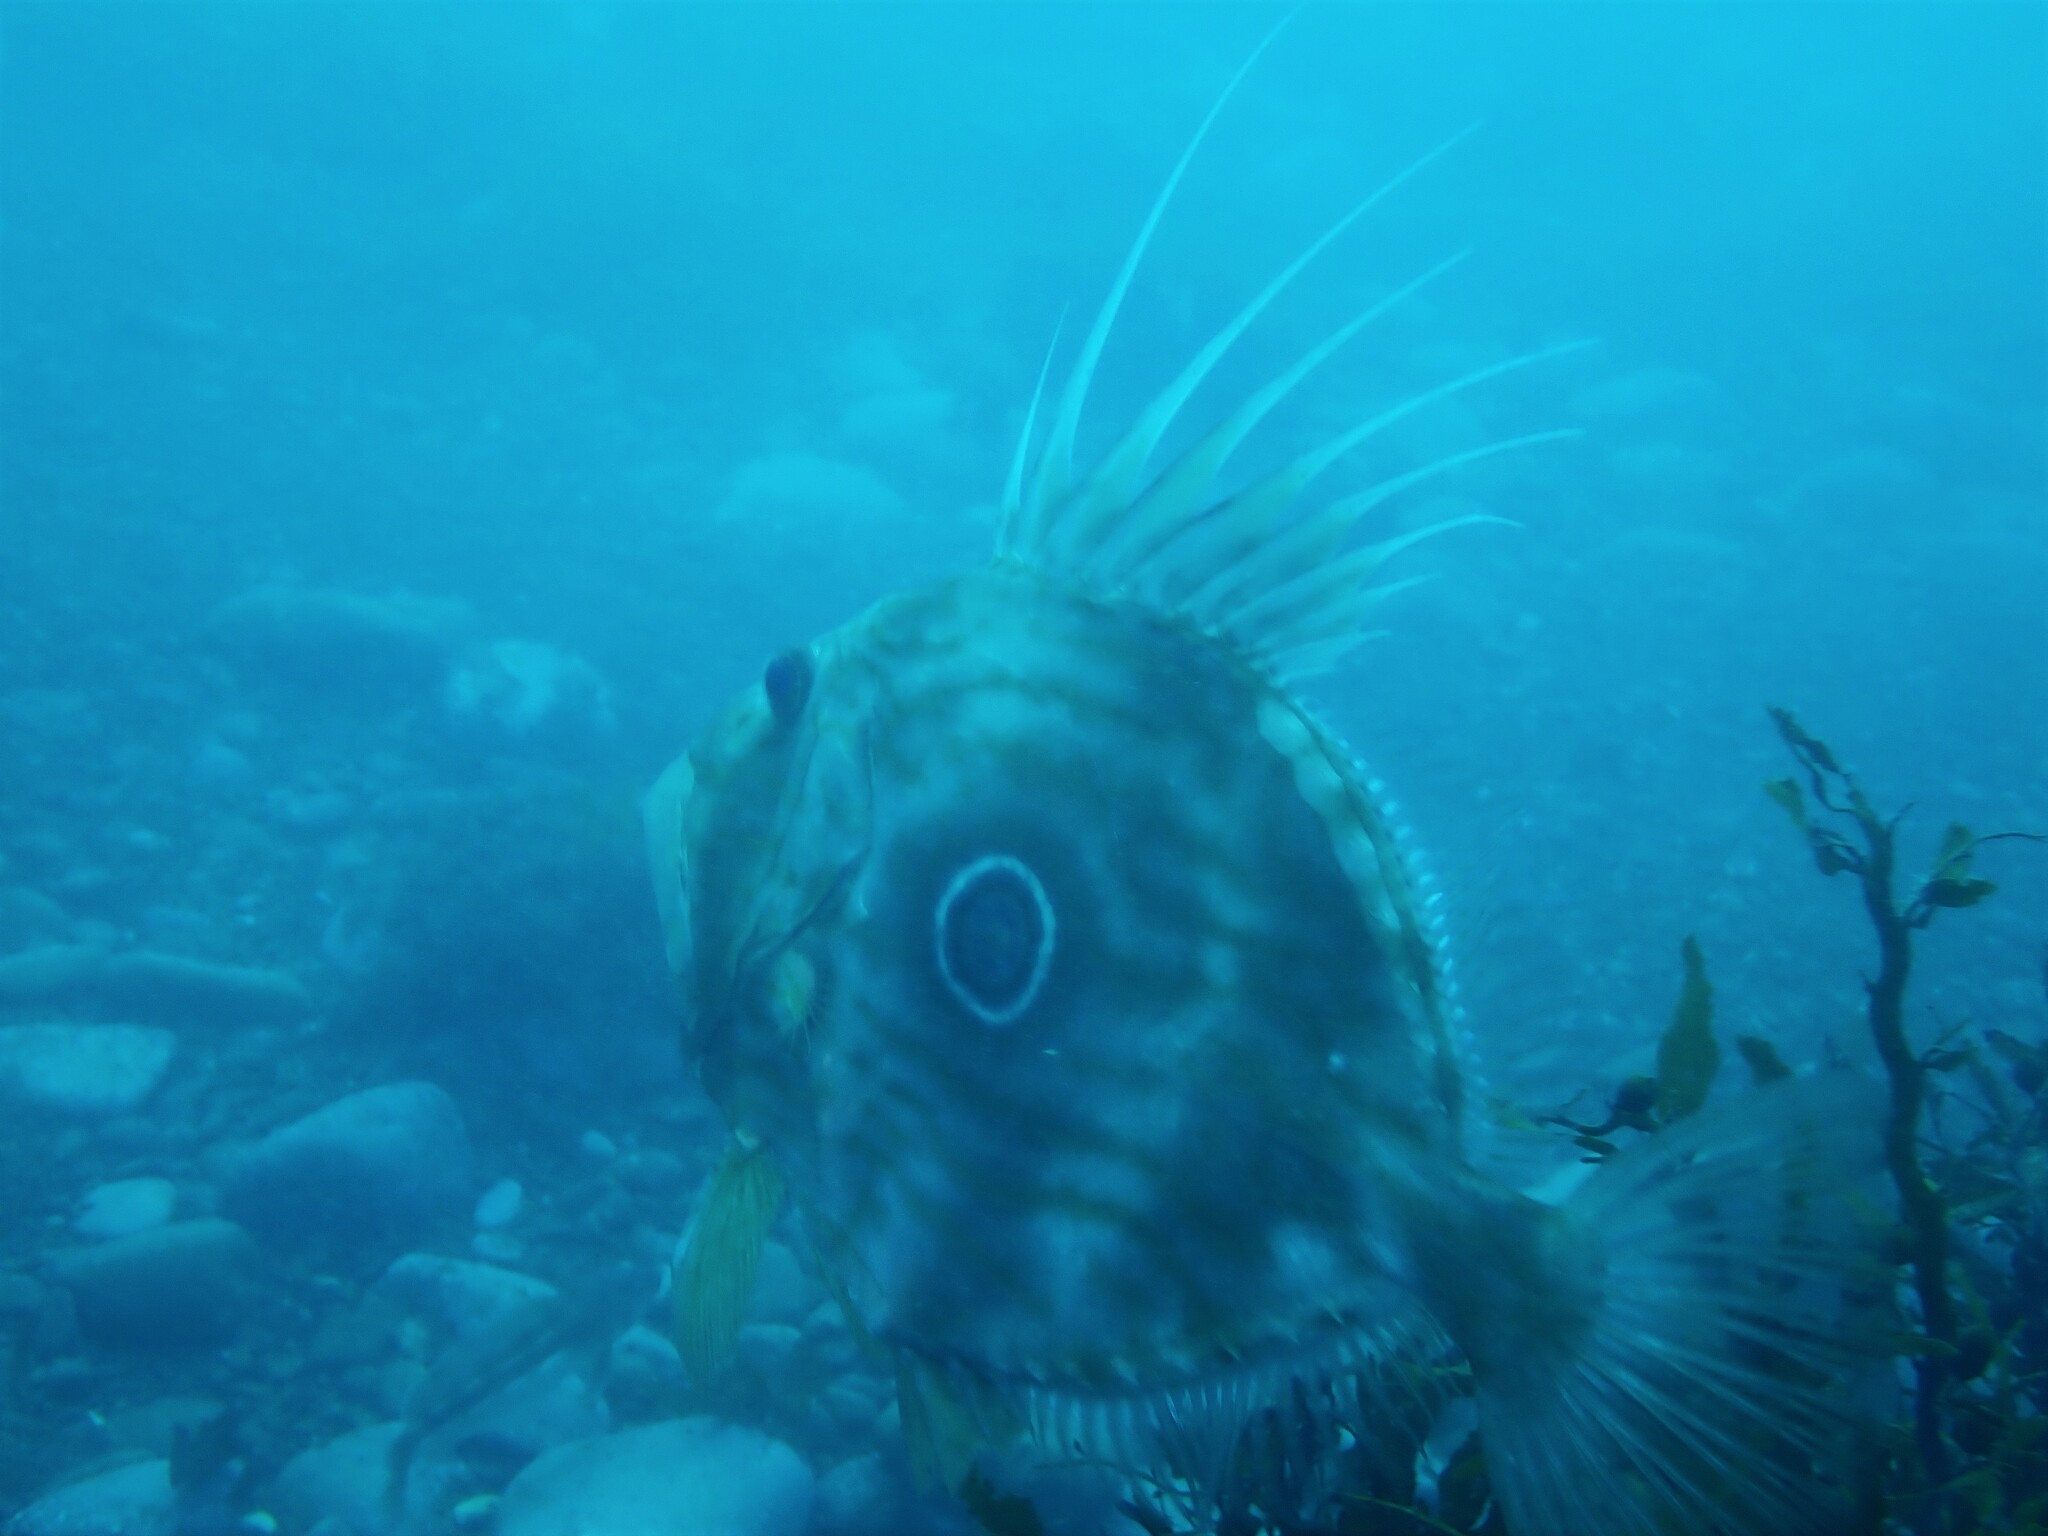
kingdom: Animalia
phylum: Chordata
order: Zeiformes
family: Zeidae
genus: Zeus
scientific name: Zeus faber
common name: John dory
